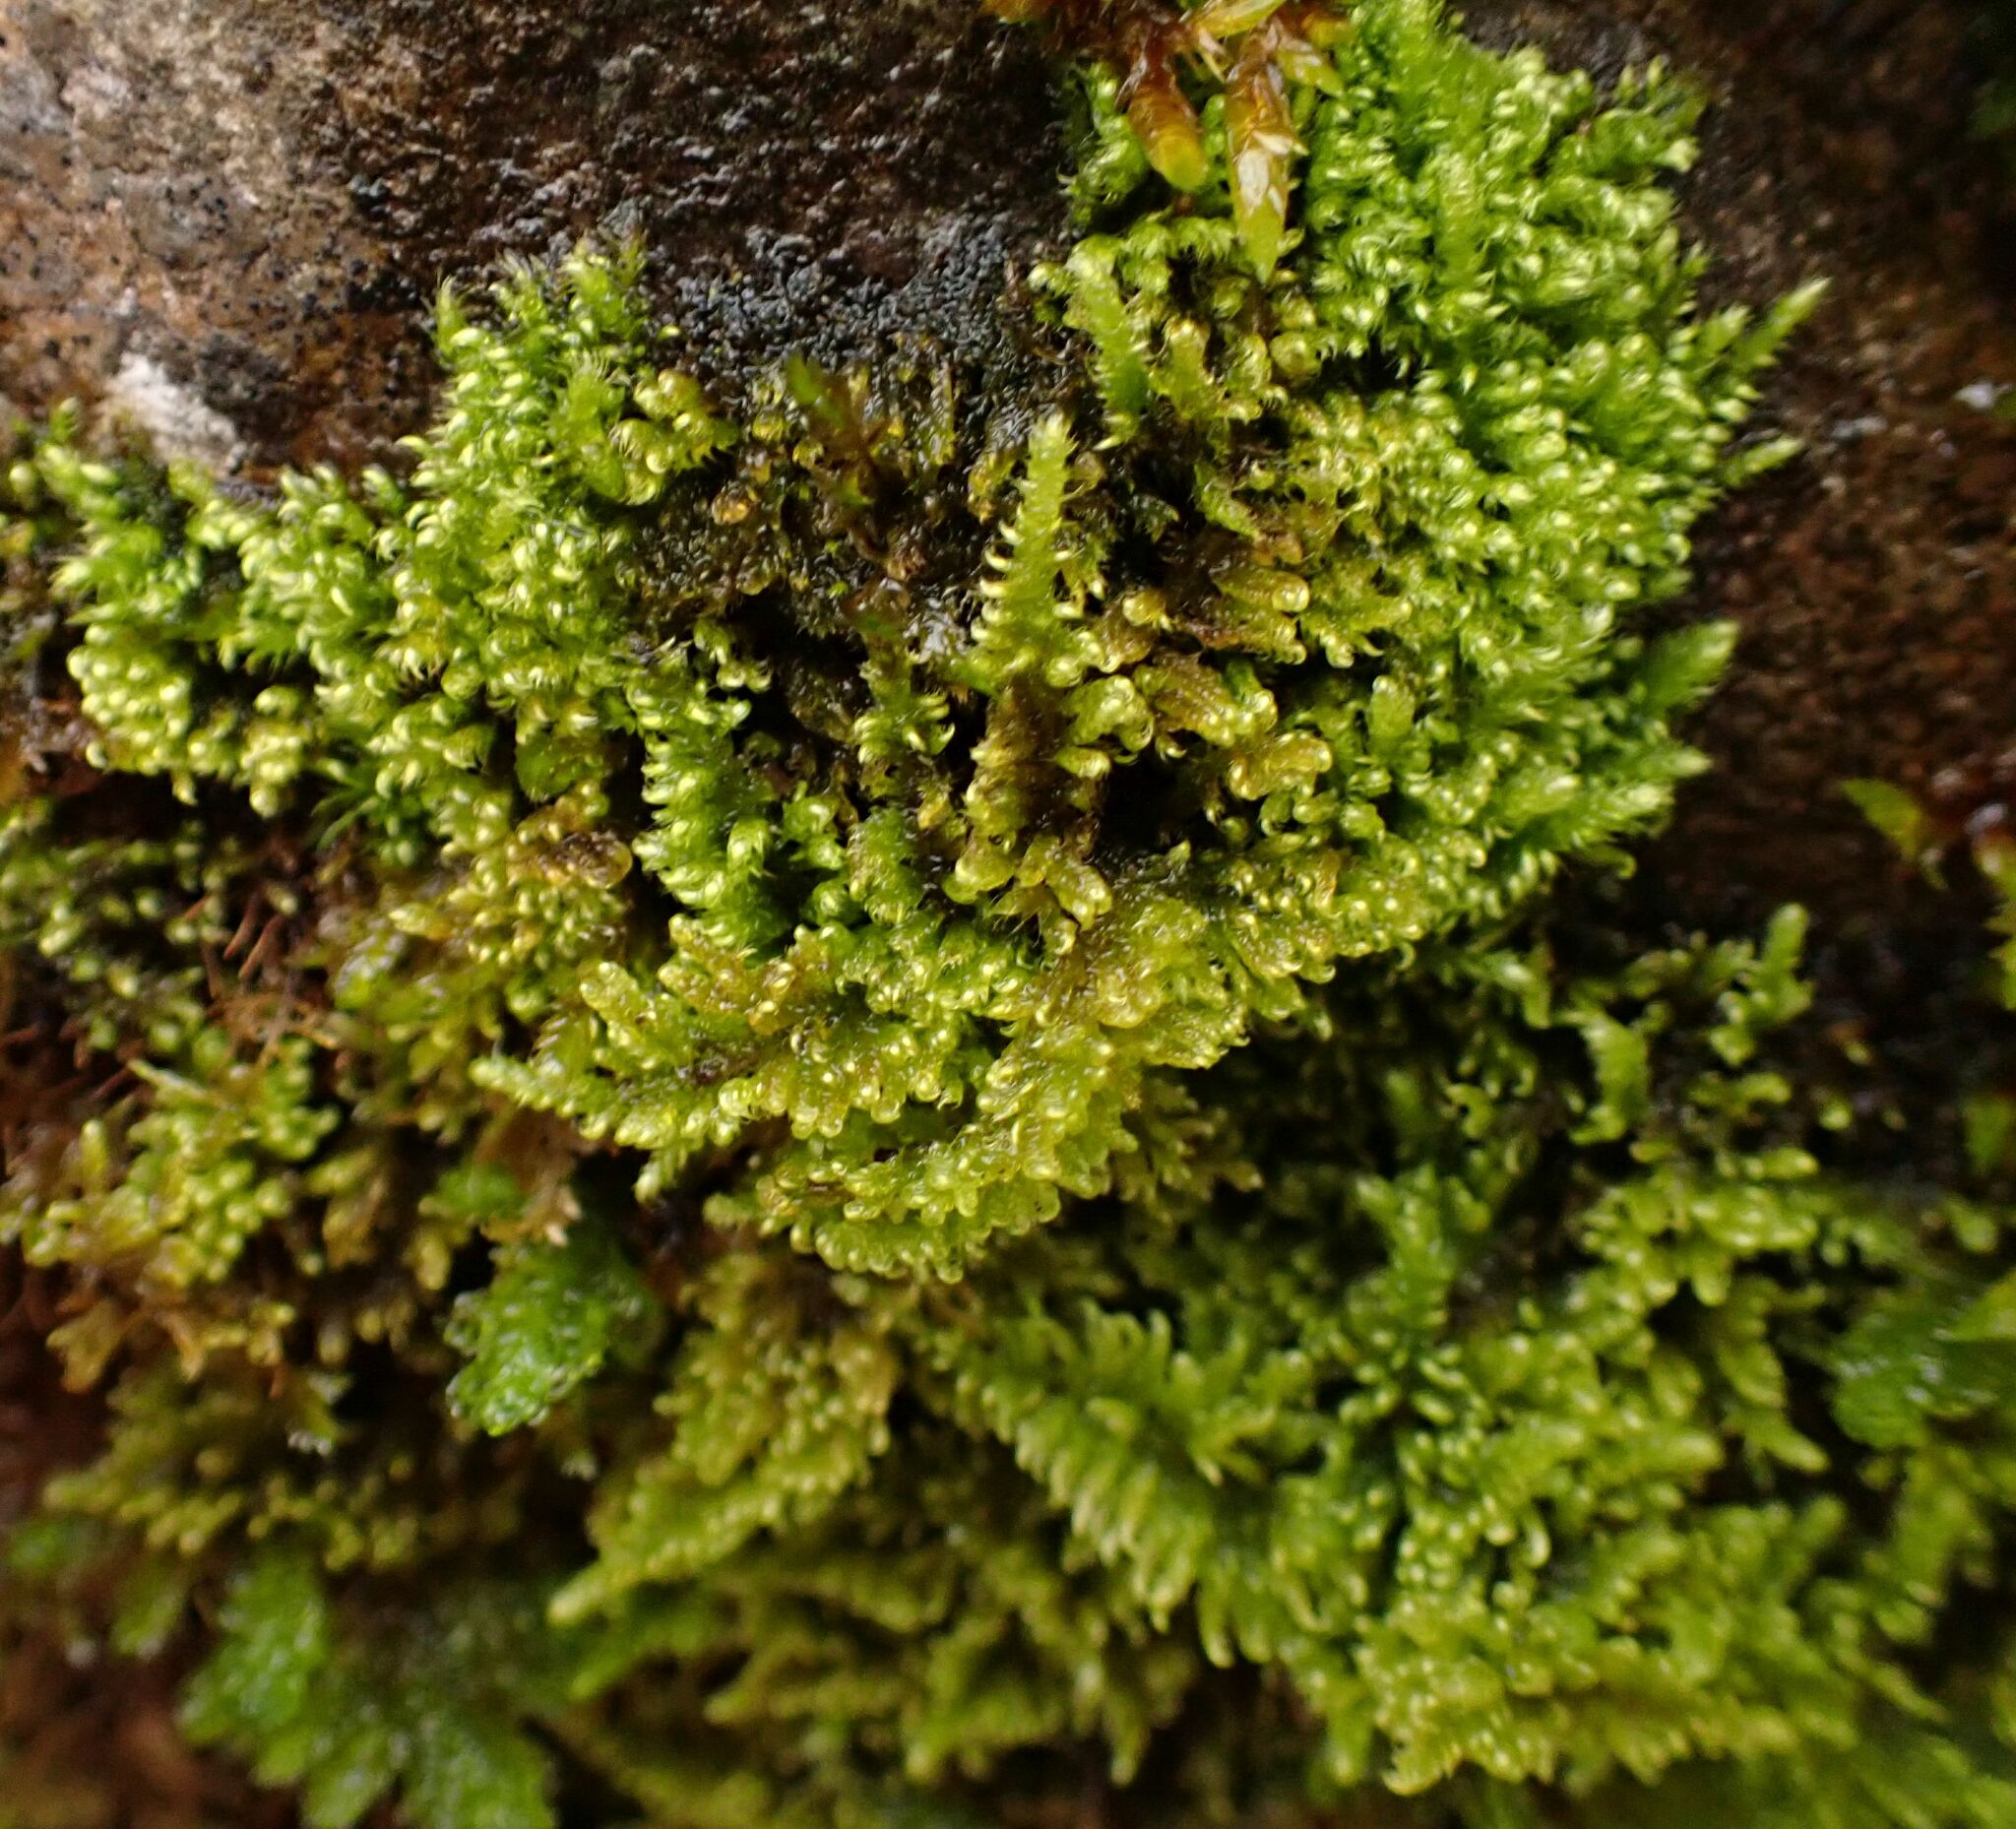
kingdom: Plantae
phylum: Bryophyta
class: Bryopsida
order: Hypnales
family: Myuriaceae
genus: Ctenidium
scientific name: Ctenidium molluscum
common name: Chalk comb-moss
